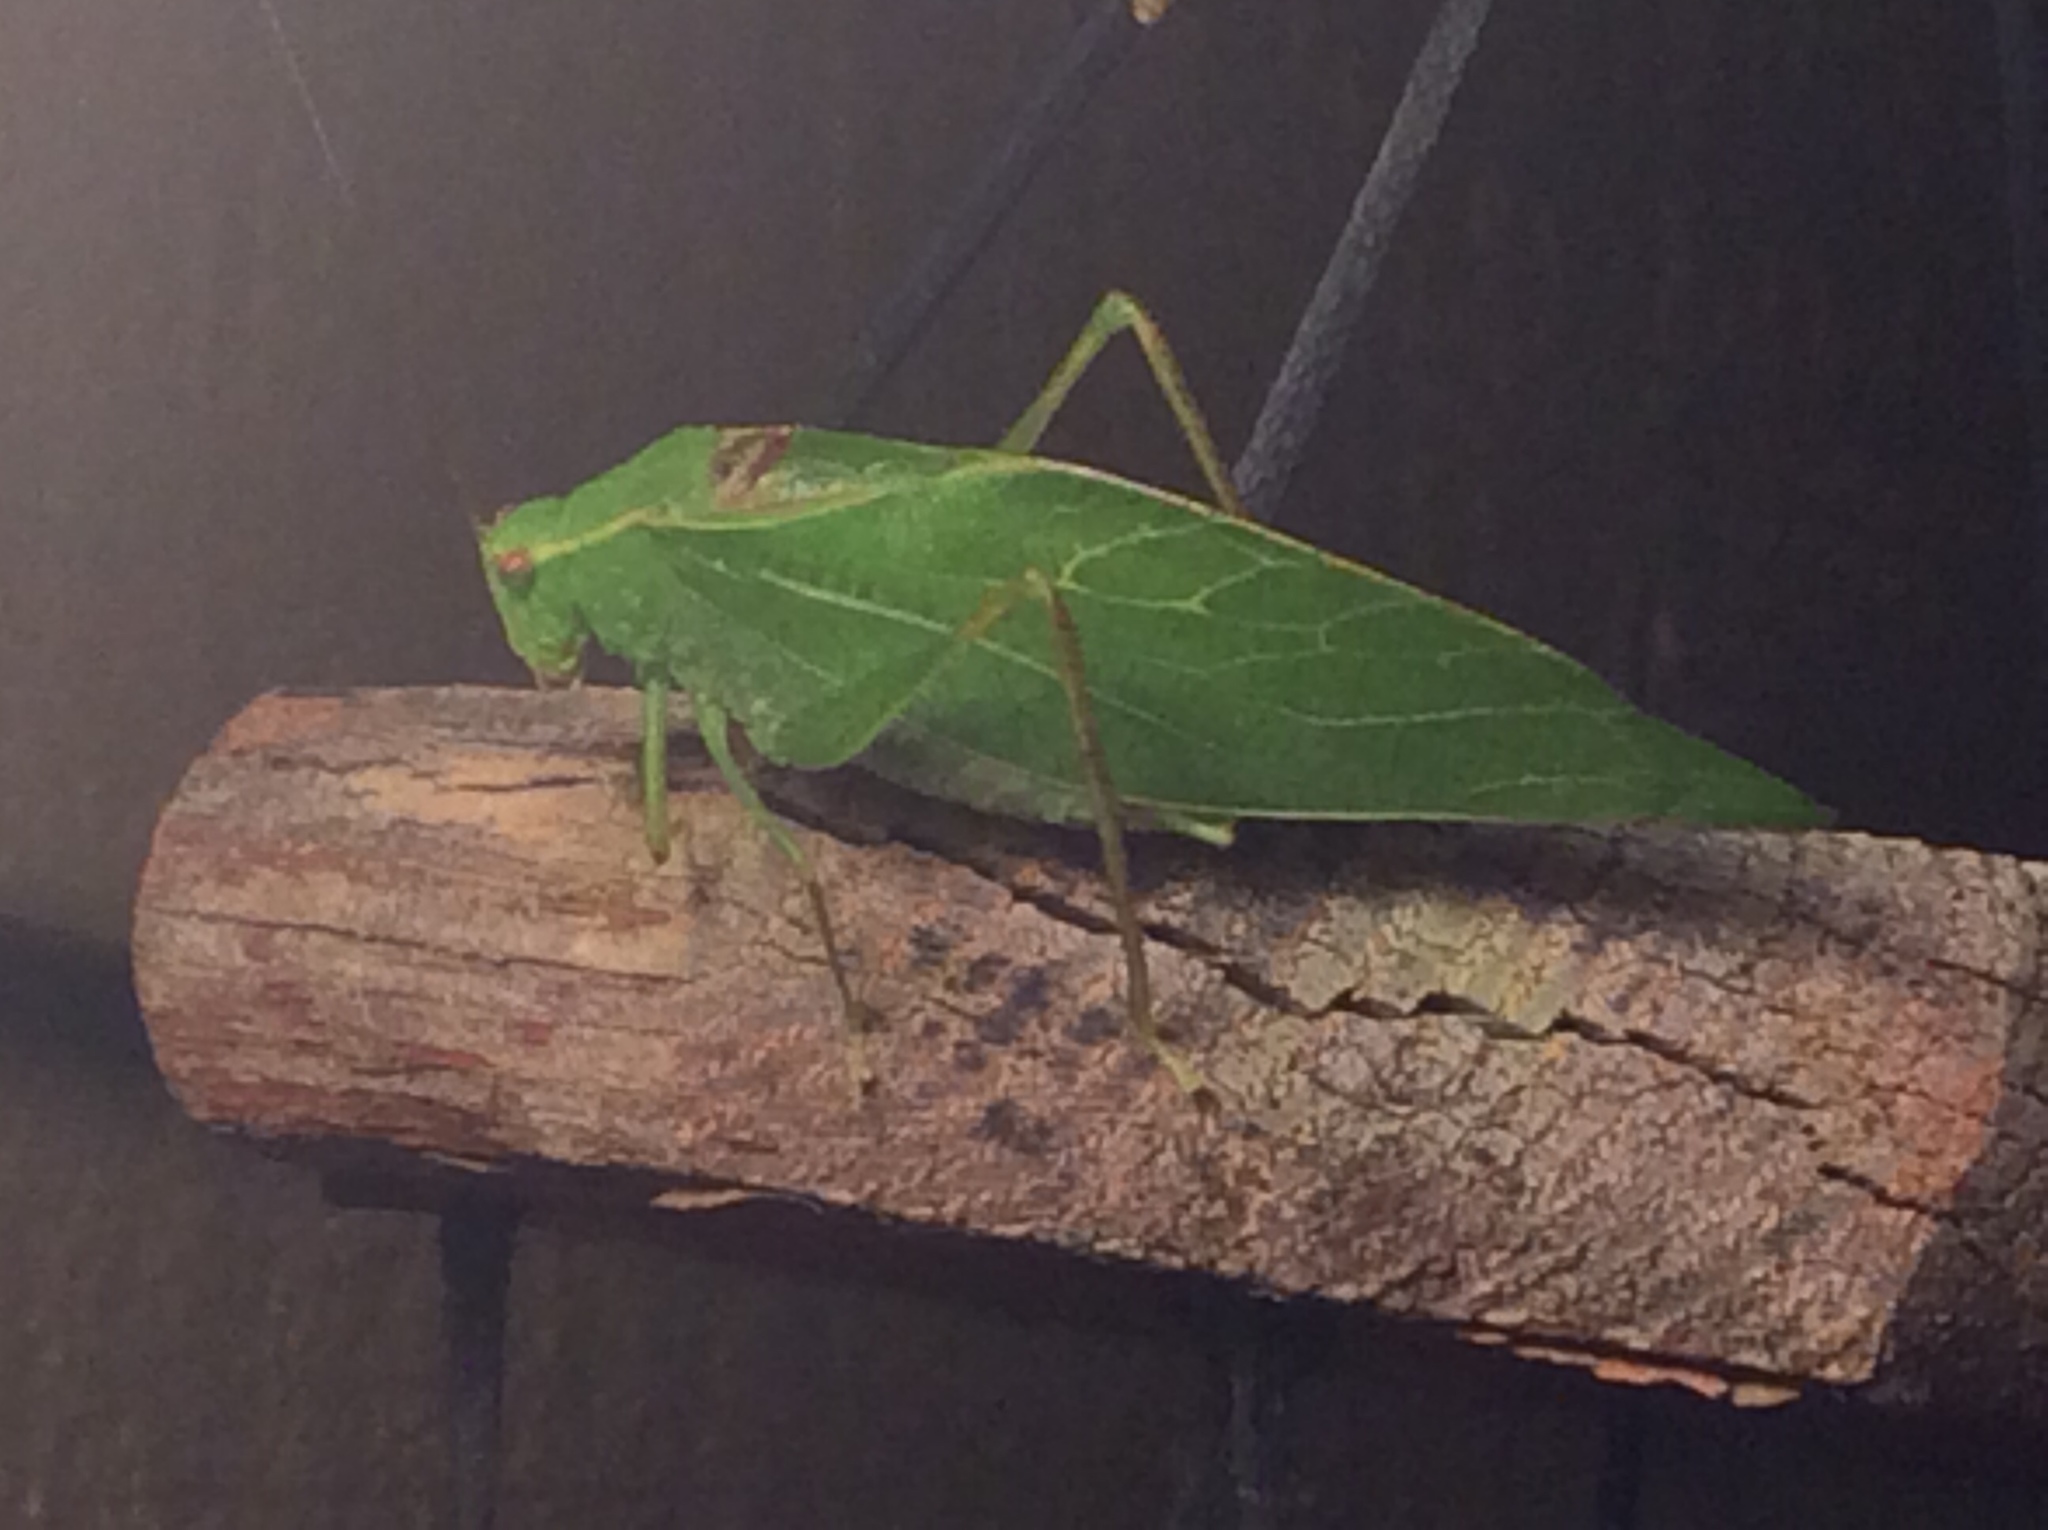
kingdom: Animalia
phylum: Arthropoda
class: Insecta
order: Orthoptera
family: Tettigoniidae
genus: Microcentrum
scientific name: Microcentrum retinerve
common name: Angular-winged katydid
